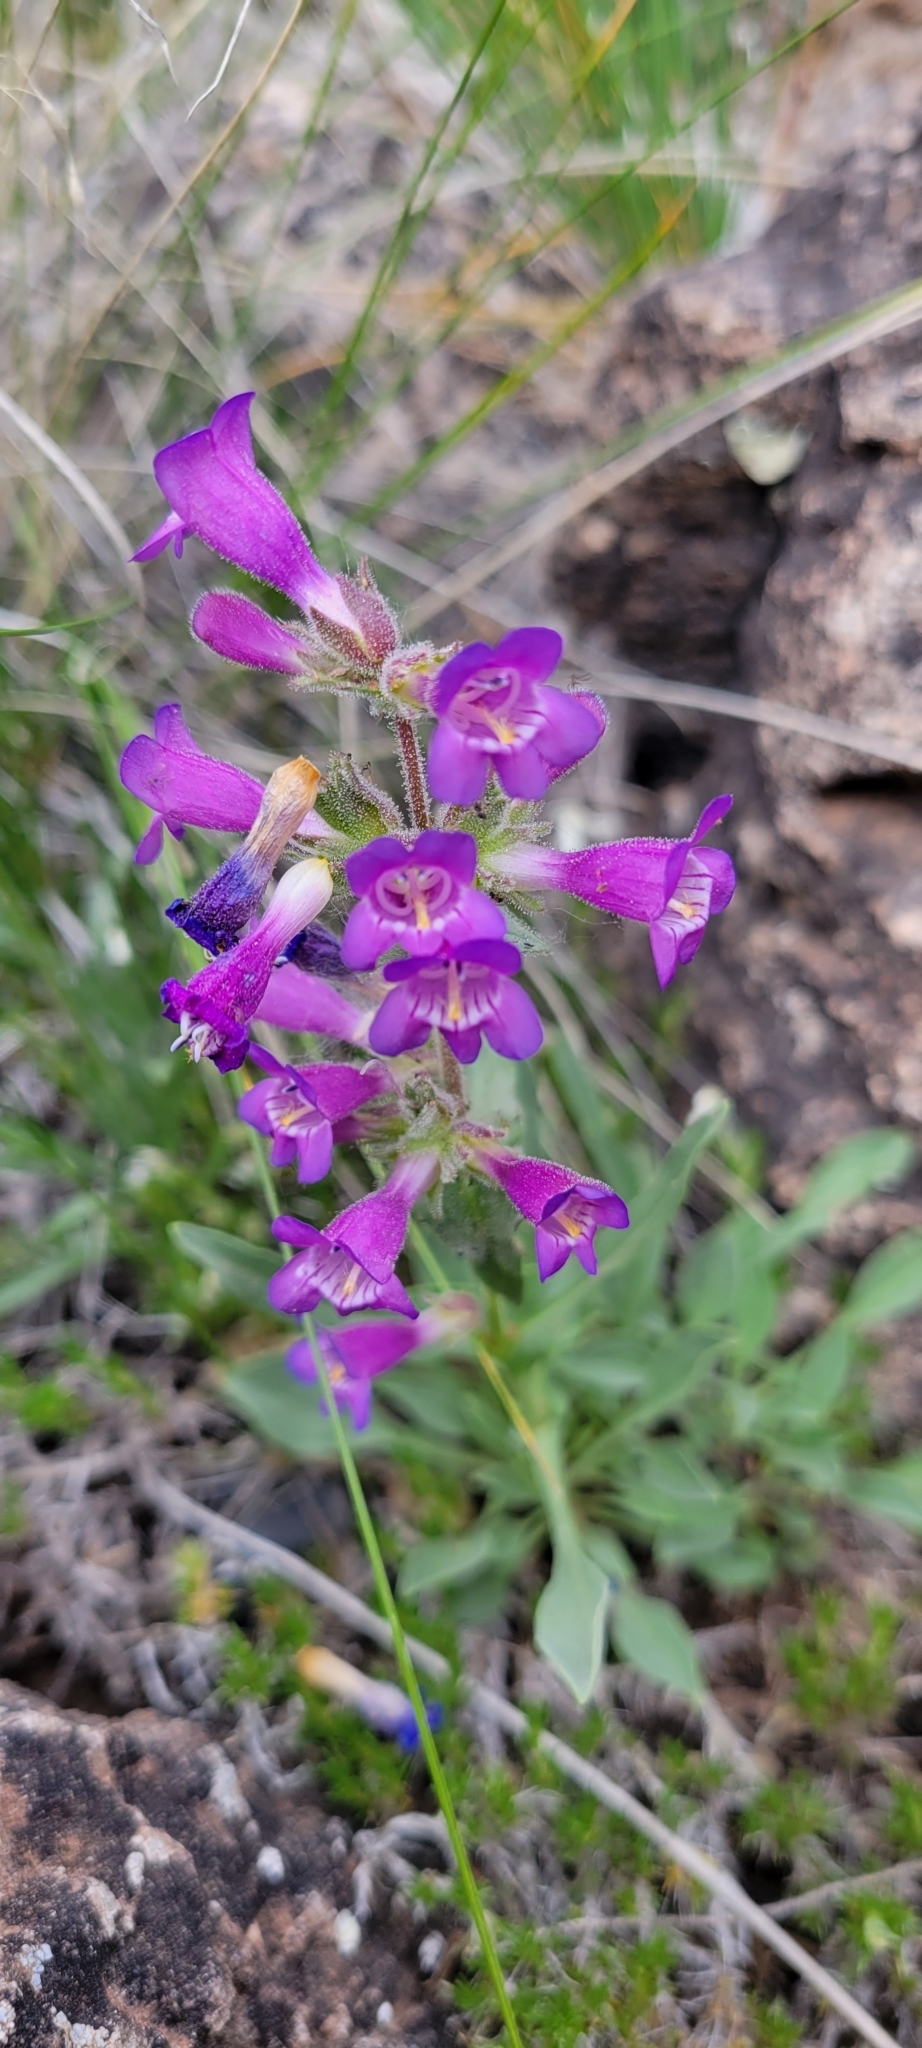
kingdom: Plantae
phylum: Tracheophyta
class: Magnoliopsida
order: Lamiales
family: Plantaginaceae
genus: Penstemon
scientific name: Penstemon moffattii
